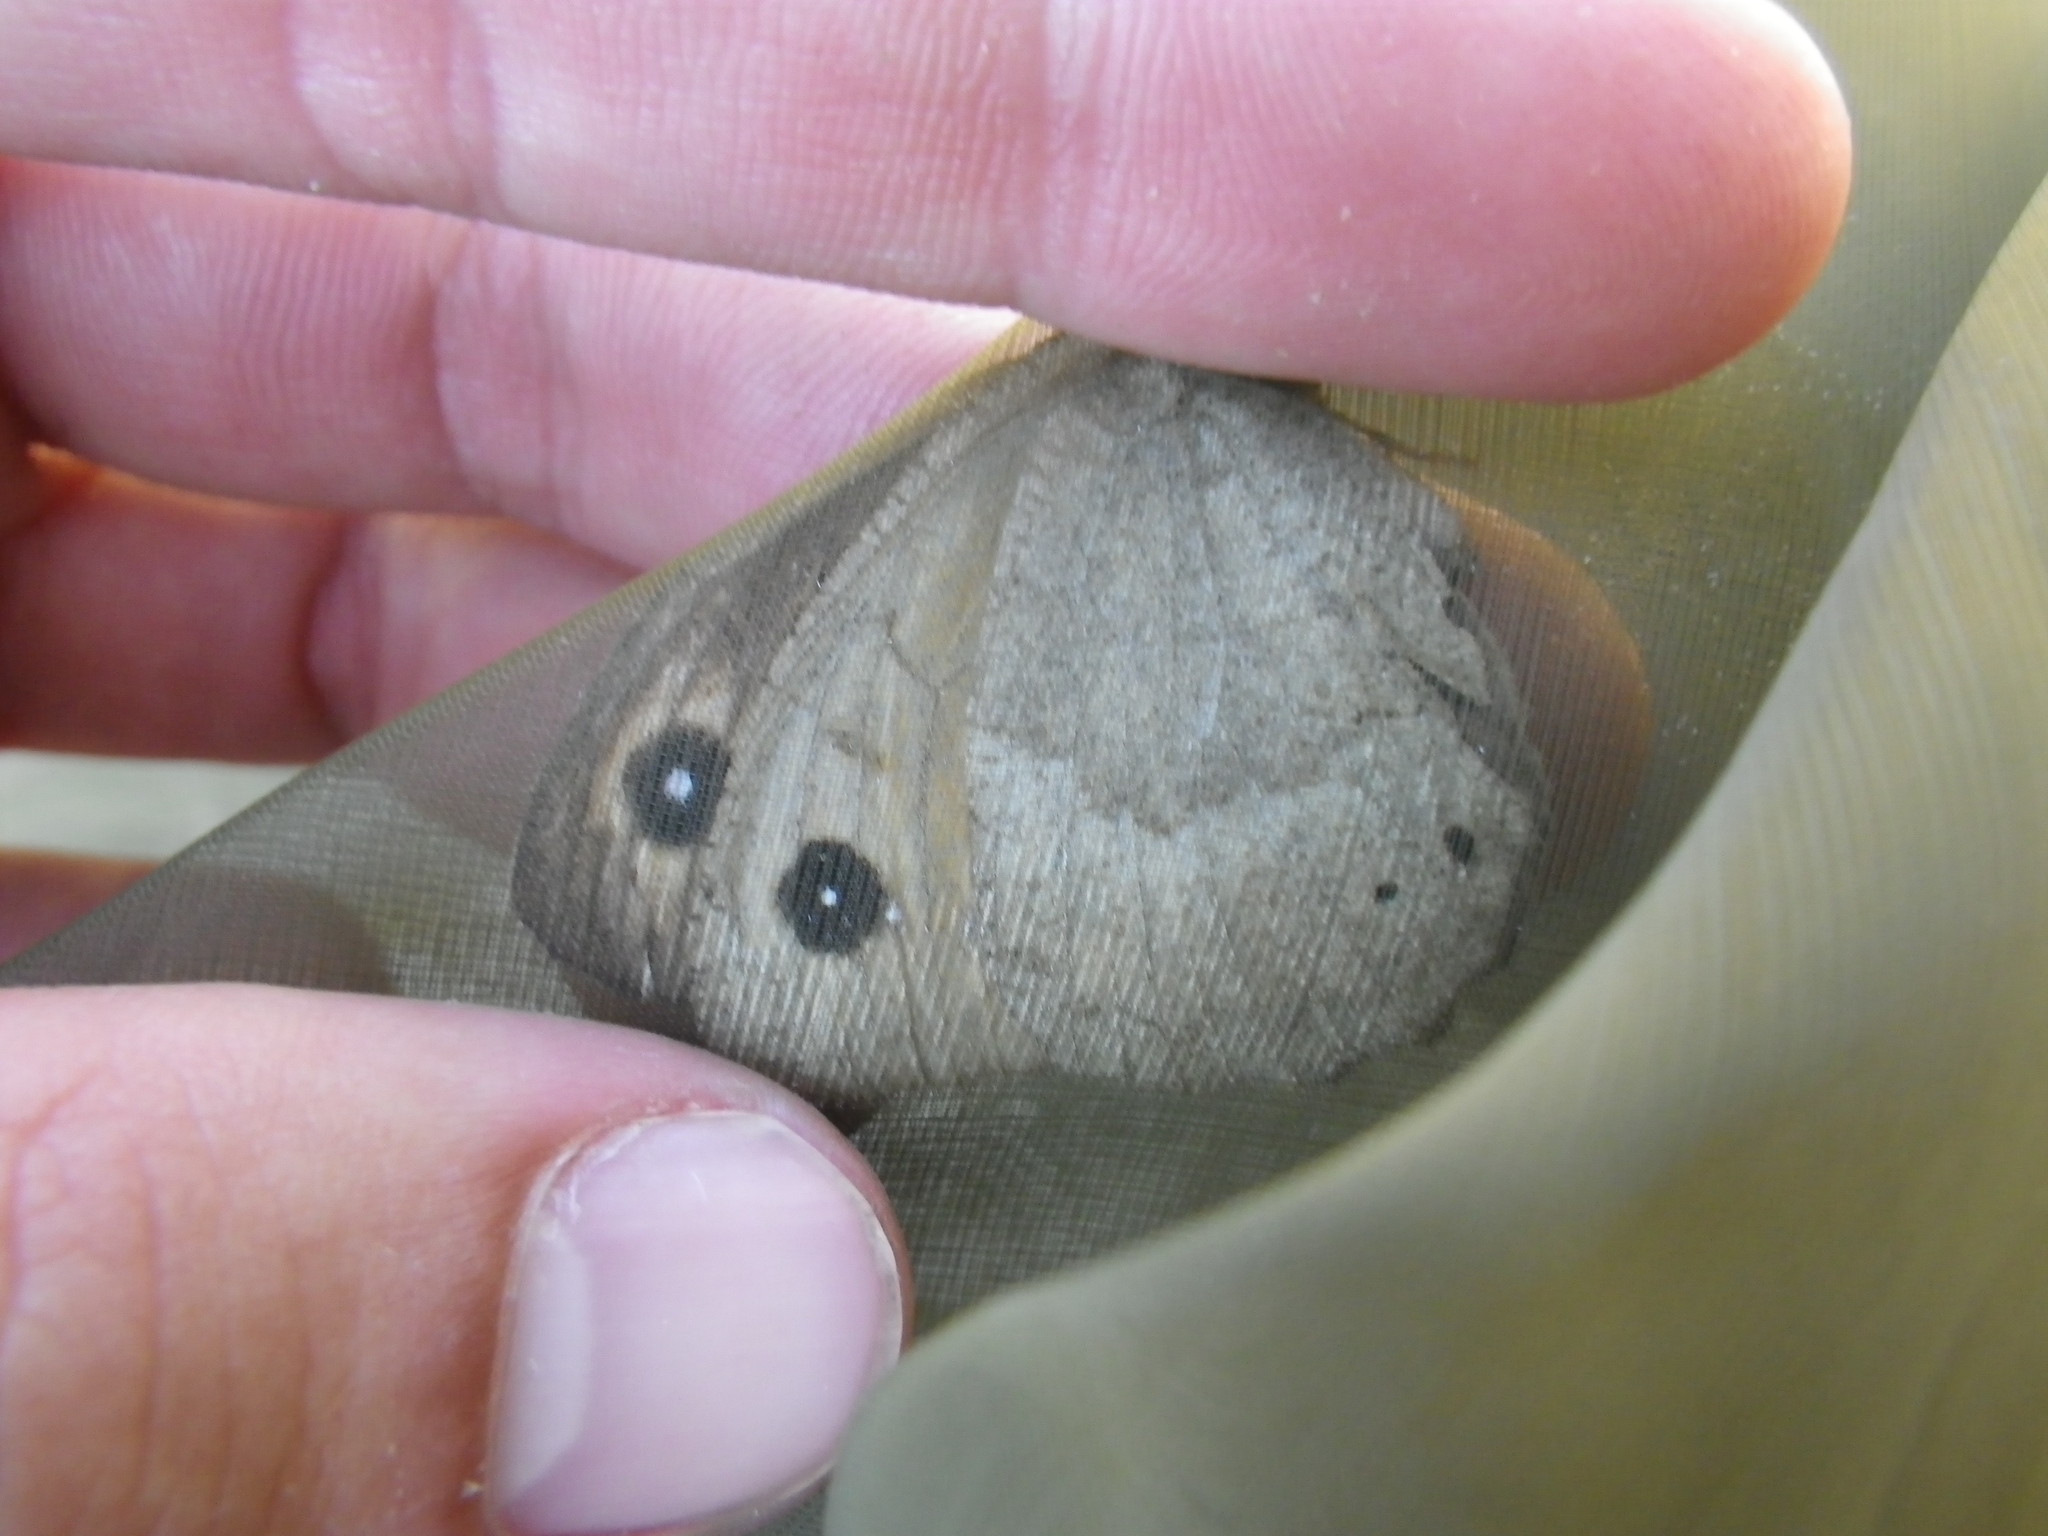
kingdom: Animalia
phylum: Arthropoda
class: Insecta
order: Lepidoptera
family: Nymphalidae
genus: Satyrus
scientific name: Satyrus ferula
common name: Great sooty satyr
